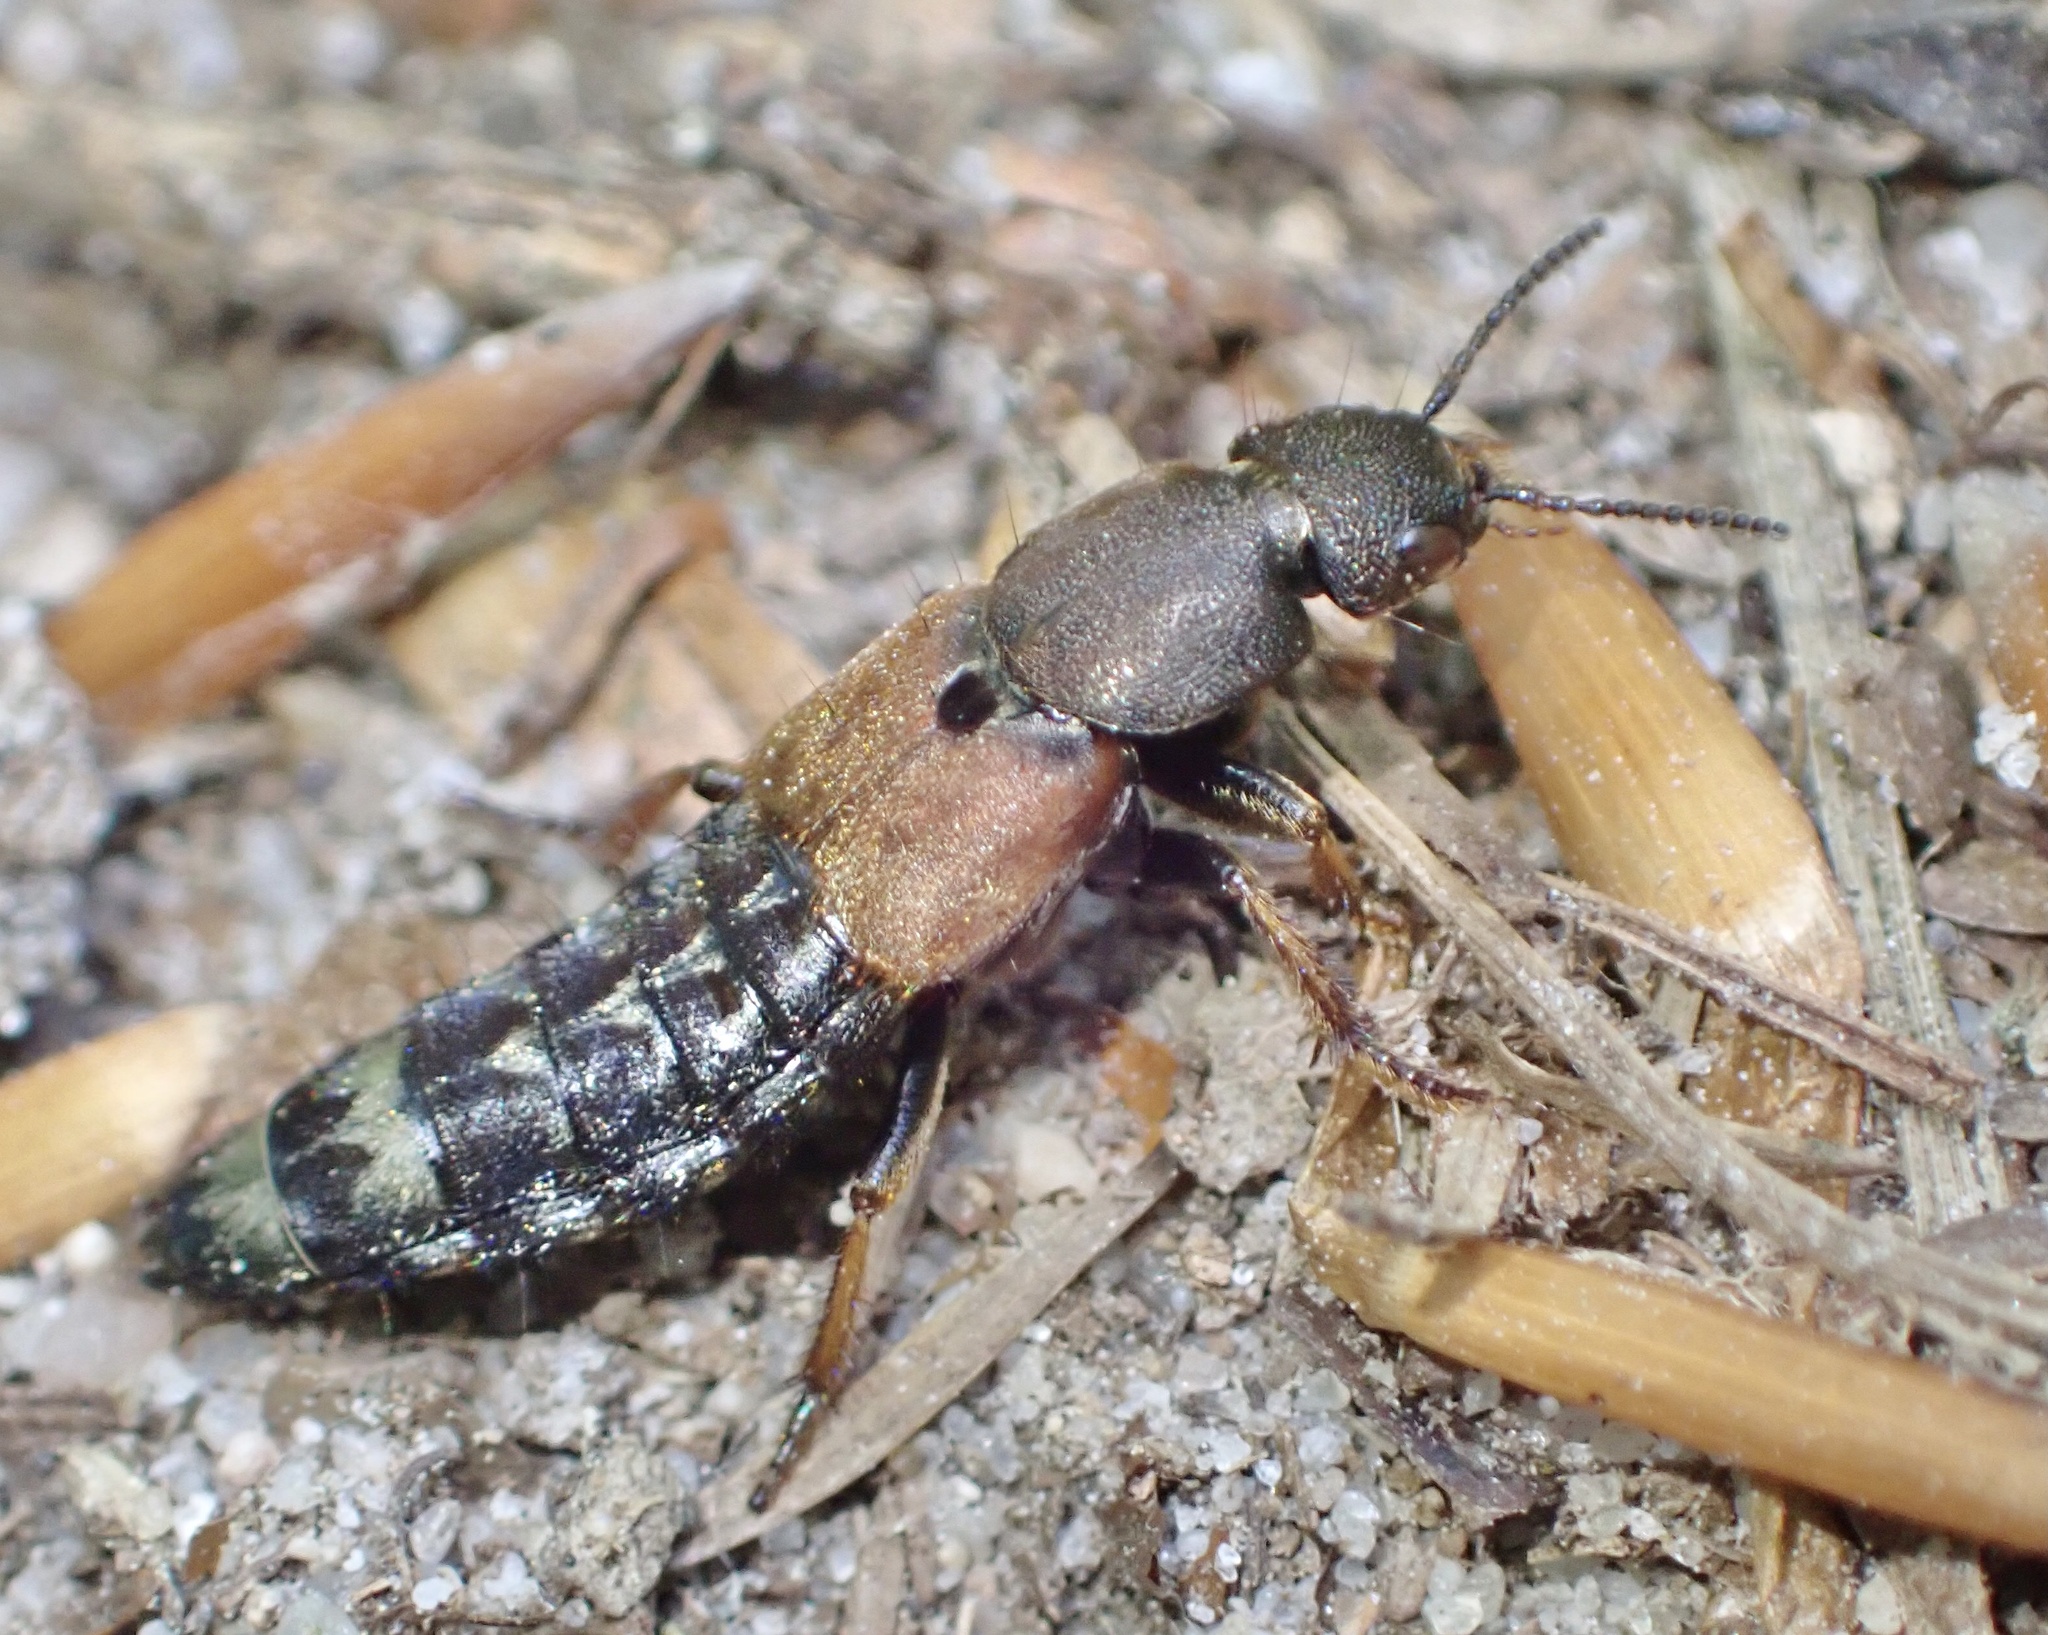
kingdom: Animalia
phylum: Arthropoda
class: Insecta
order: Coleoptera
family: Staphylinidae
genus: Platydracus
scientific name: Platydracus chalcocephalus
